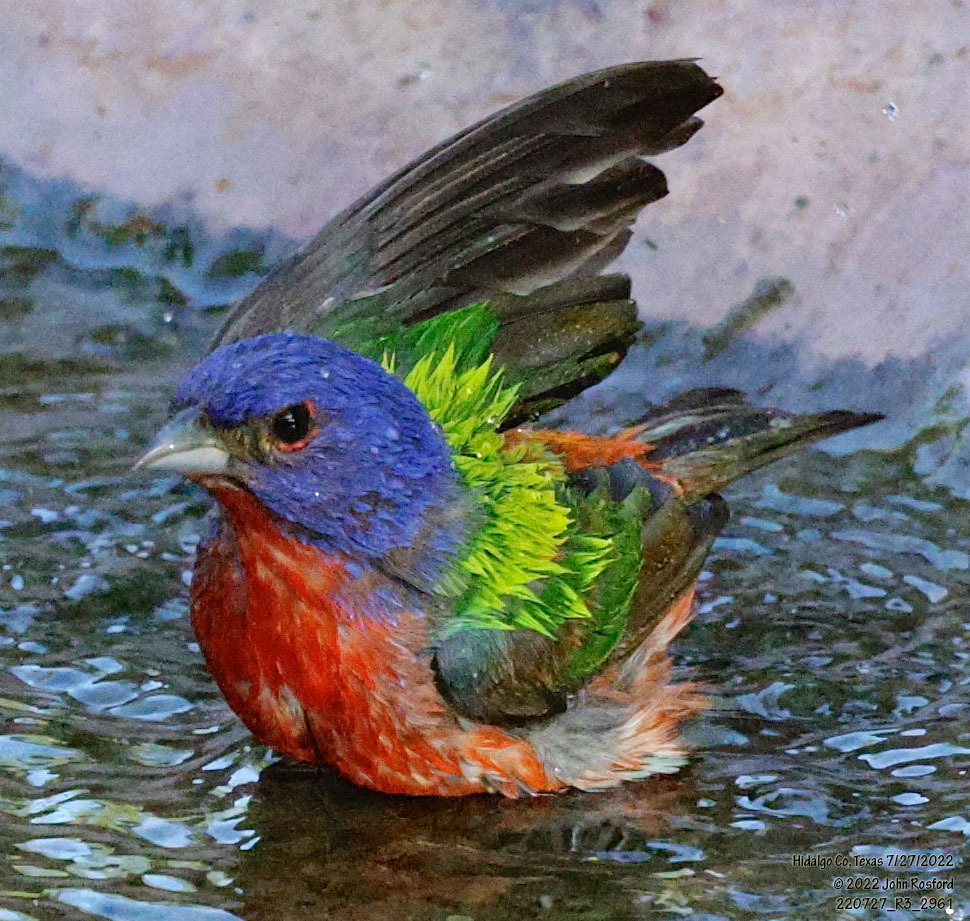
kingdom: Animalia
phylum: Chordata
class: Aves
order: Passeriformes
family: Cardinalidae
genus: Passerina
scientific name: Passerina ciris
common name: Painted bunting
